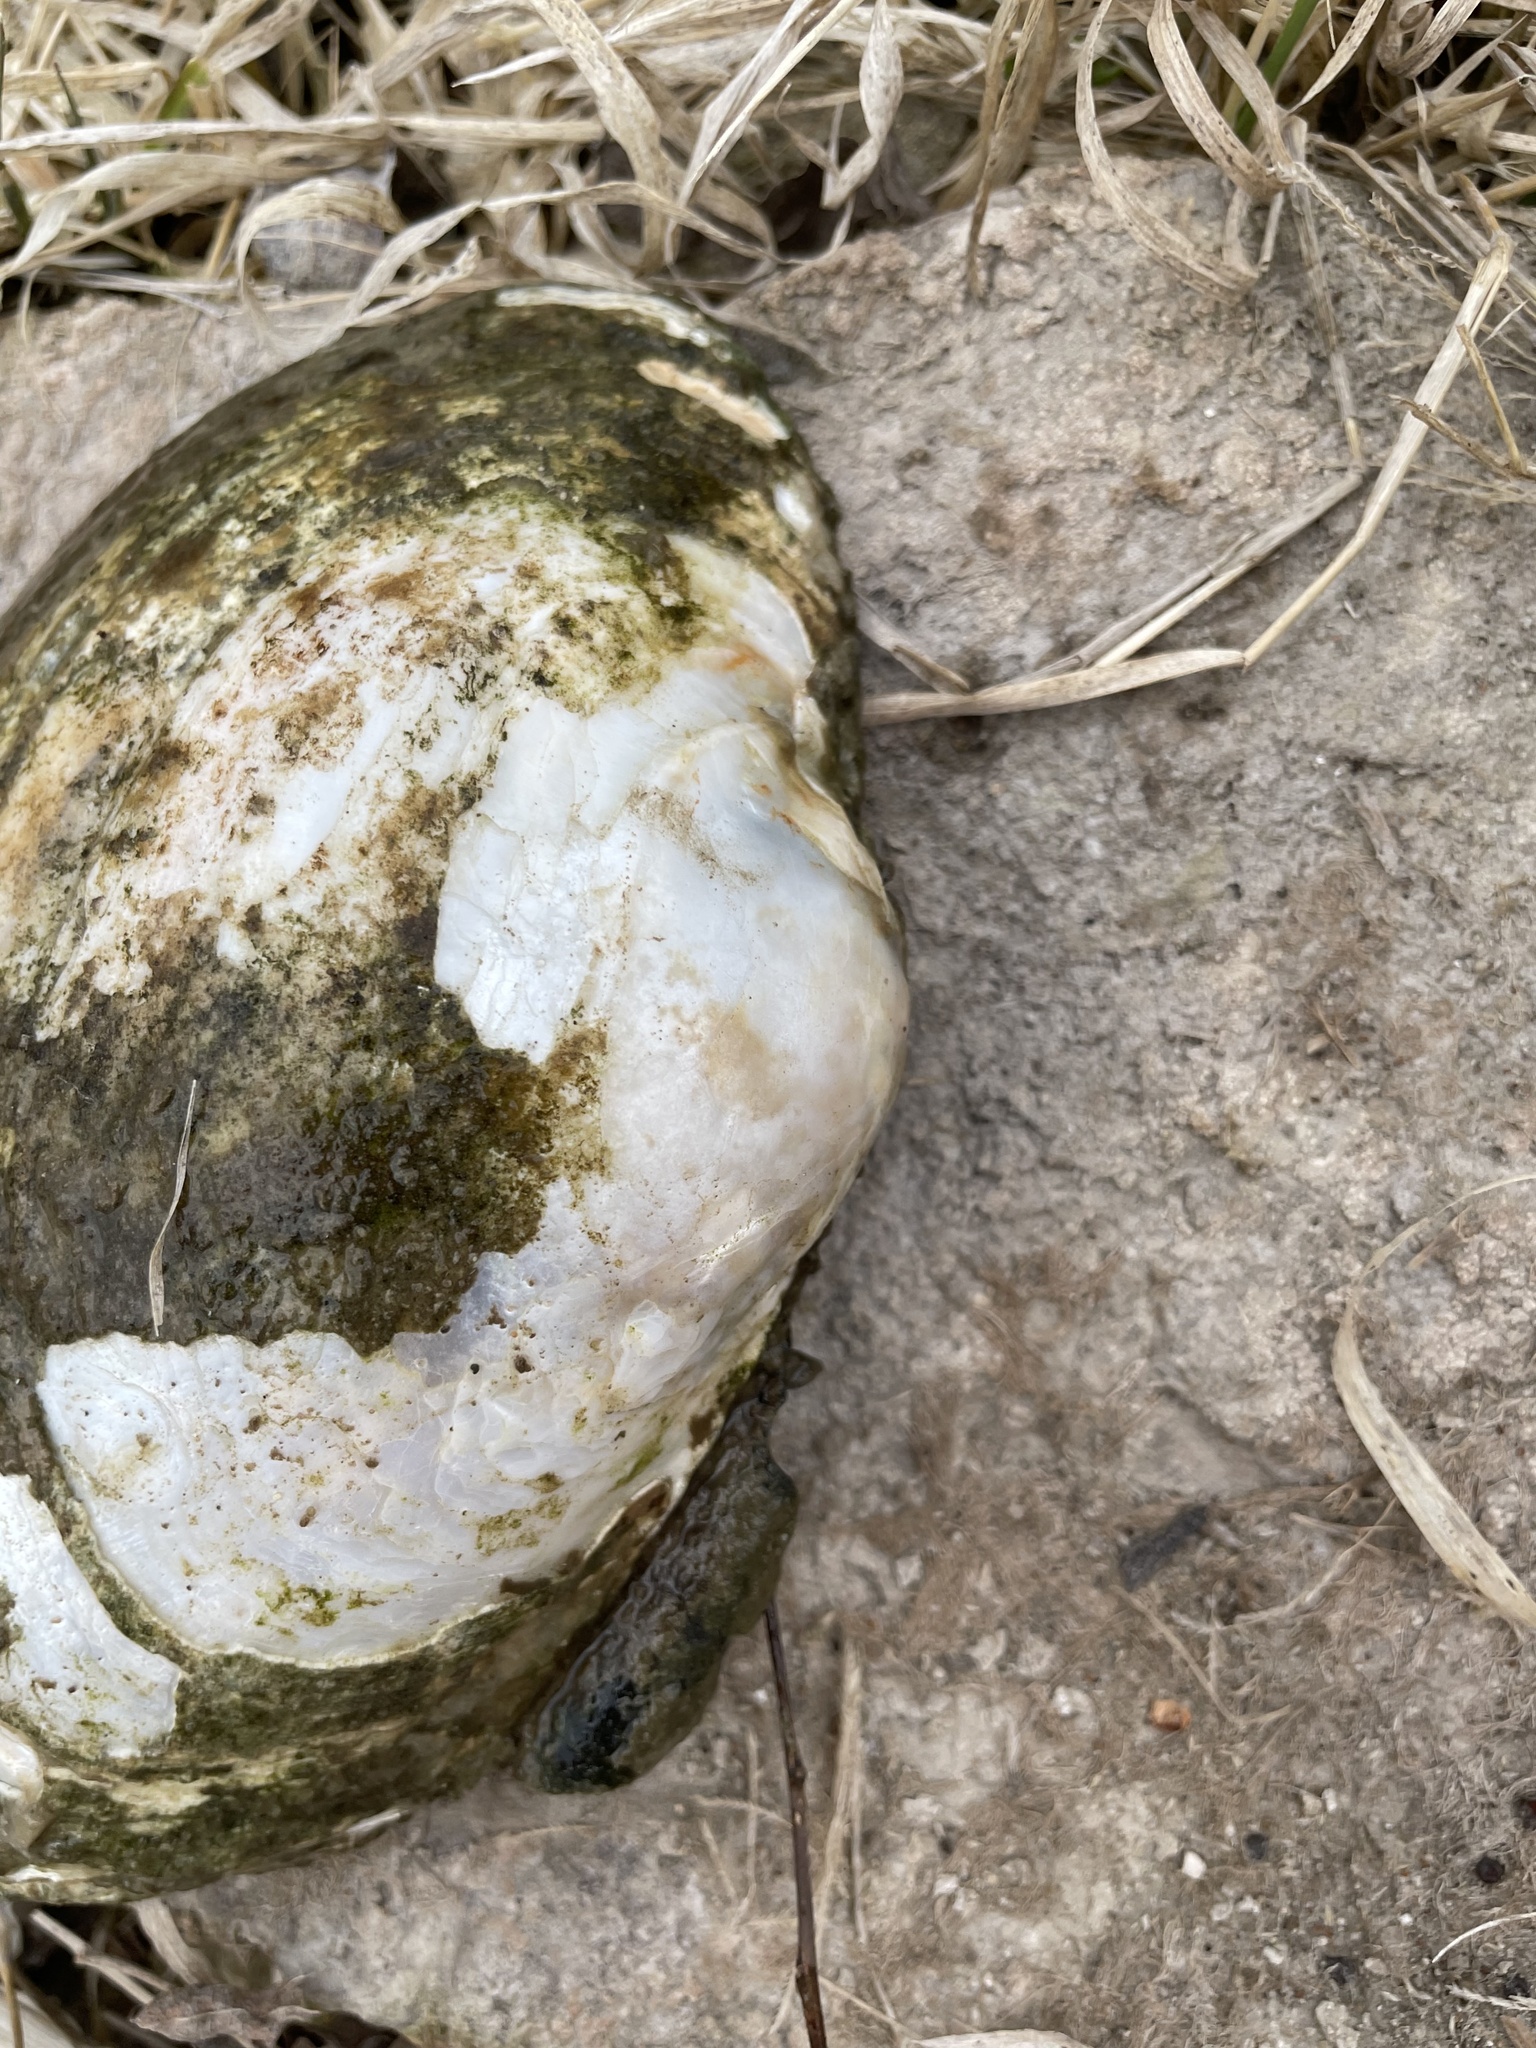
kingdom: Animalia
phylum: Mollusca
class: Bivalvia
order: Unionida
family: Unionidae
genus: Lampsilis
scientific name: Lampsilis cardium
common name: Plain pocketbook
